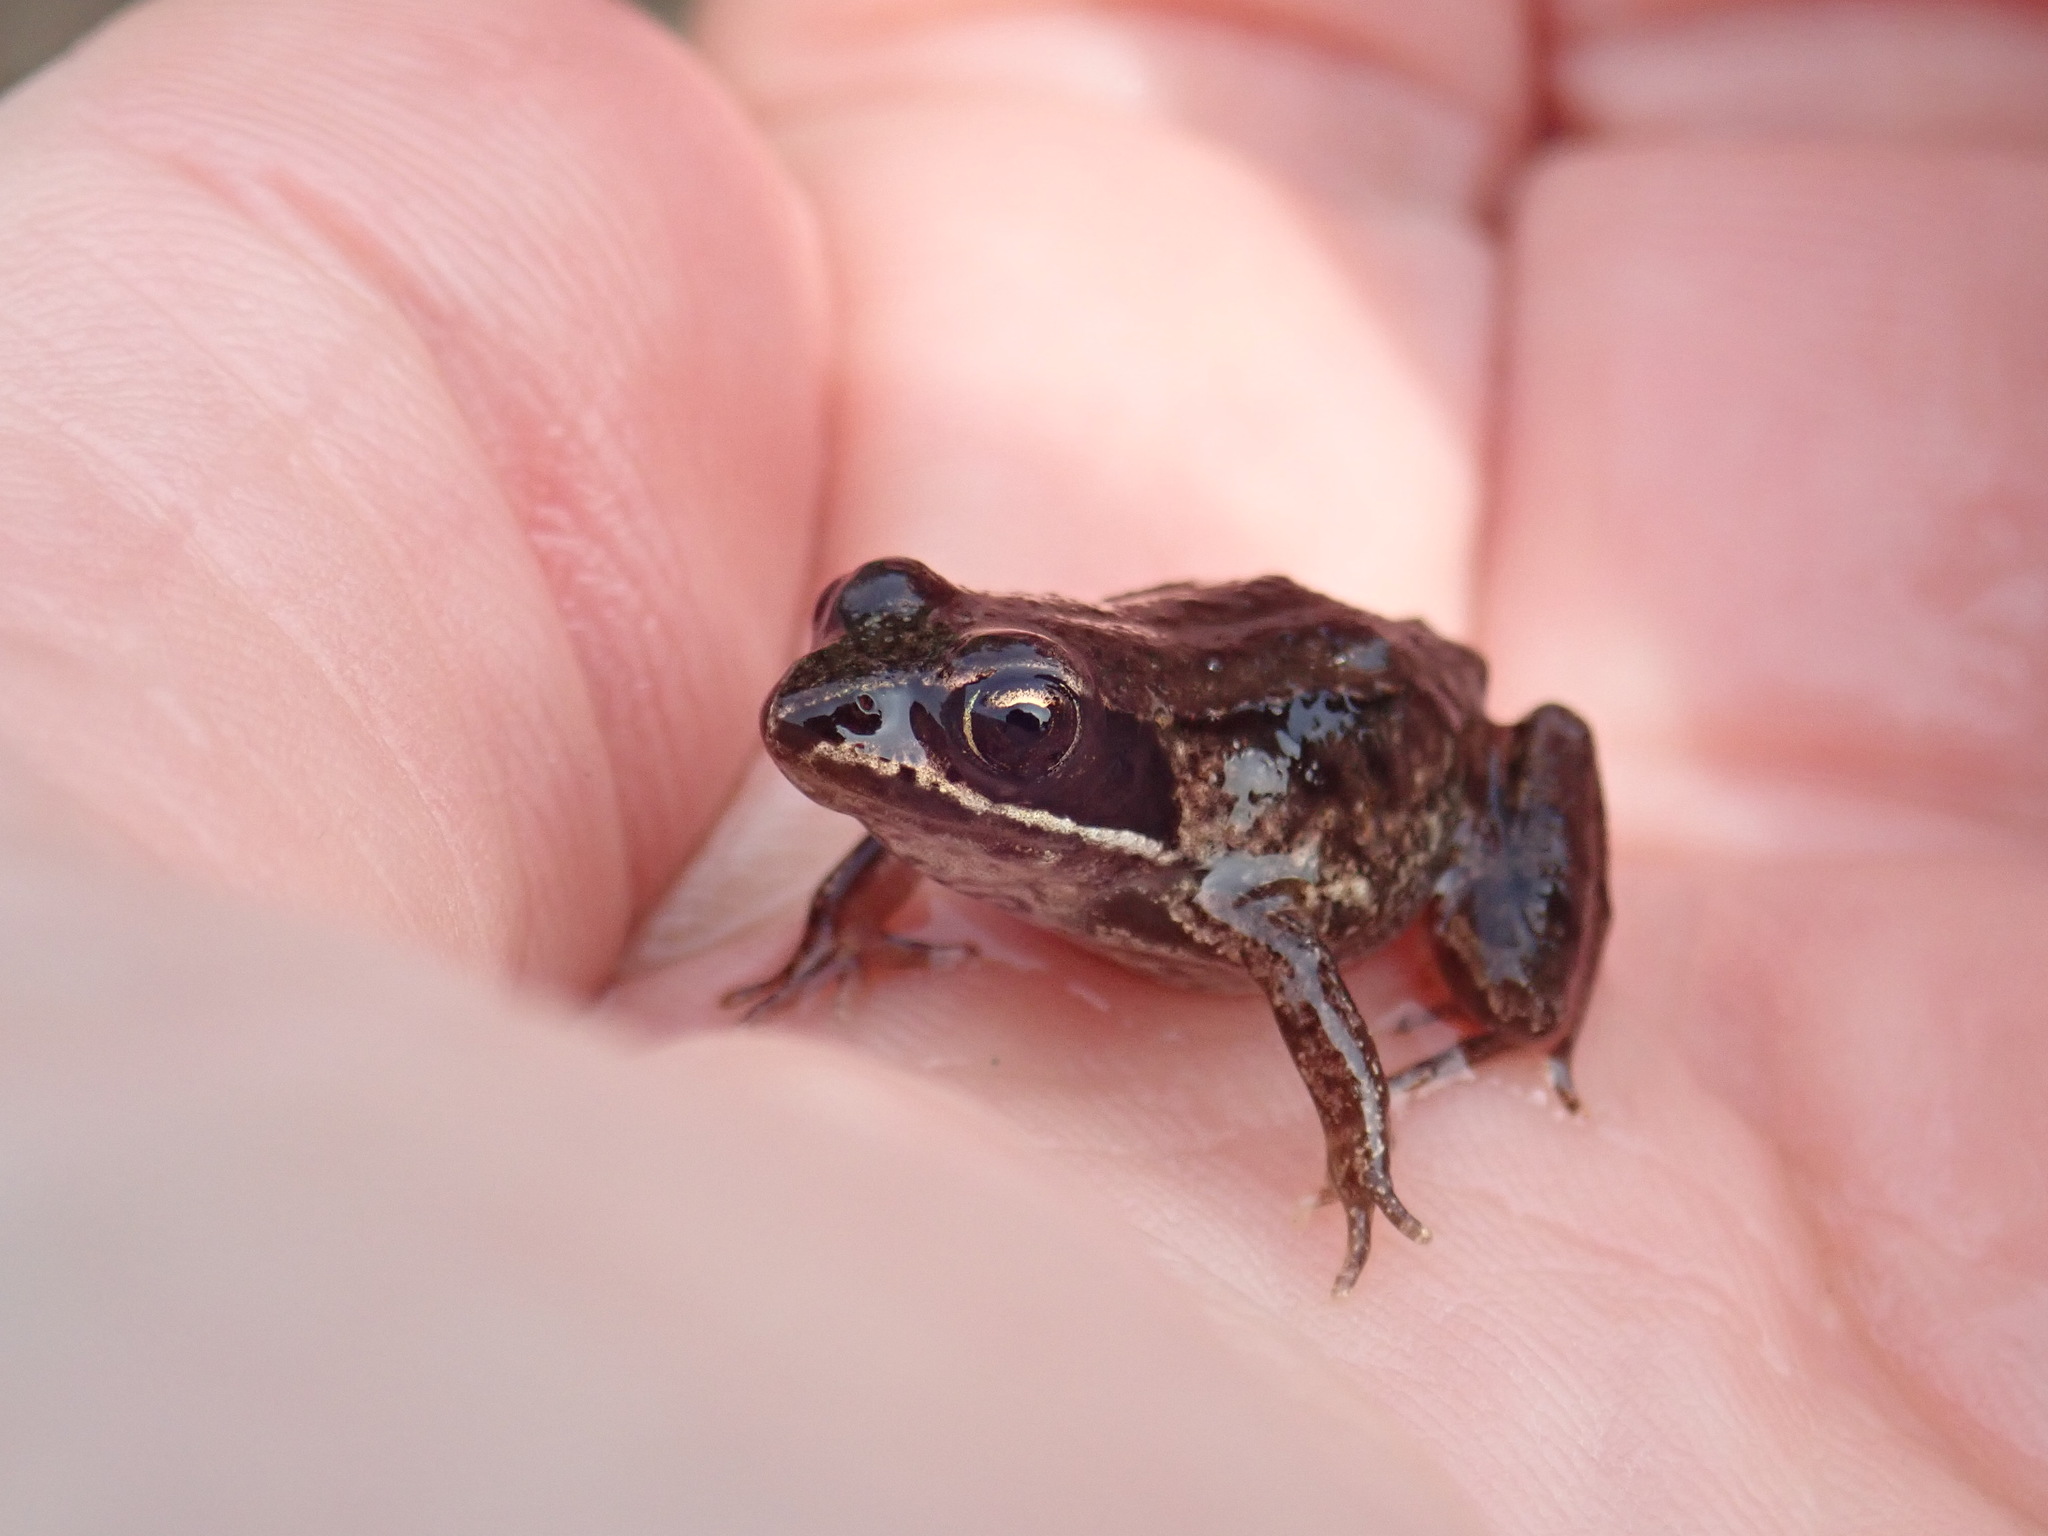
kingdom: Animalia
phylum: Chordata
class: Amphibia
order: Anura
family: Ranidae
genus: Lithobates
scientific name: Lithobates sylvaticus
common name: Wood frog
